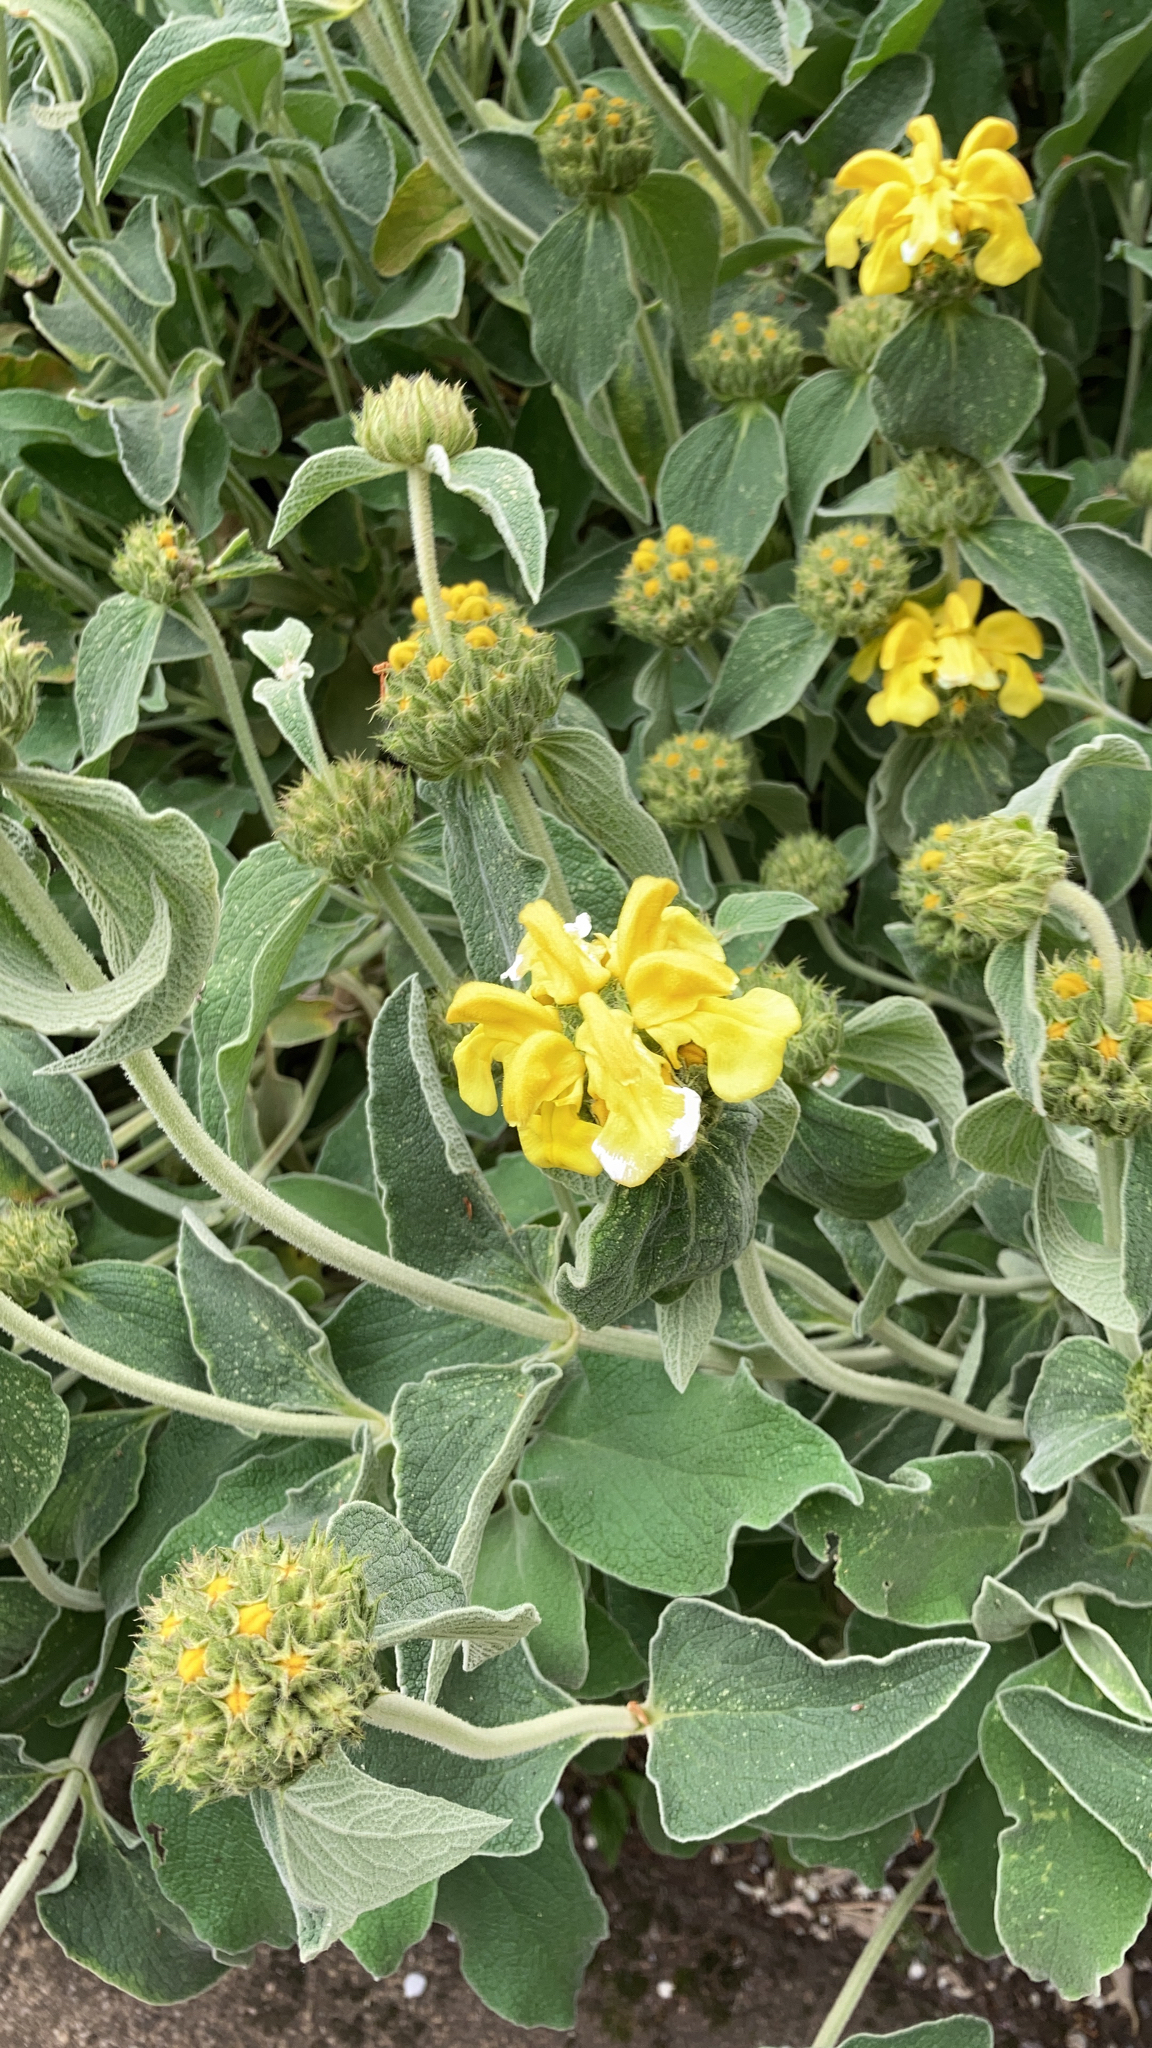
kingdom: Plantae
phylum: Tracheophyta
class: Magnoliopsida
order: Lamiales
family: Lamiaceae
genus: Phlomis
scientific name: Phlomis fruticosa
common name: Jerusalem sage
